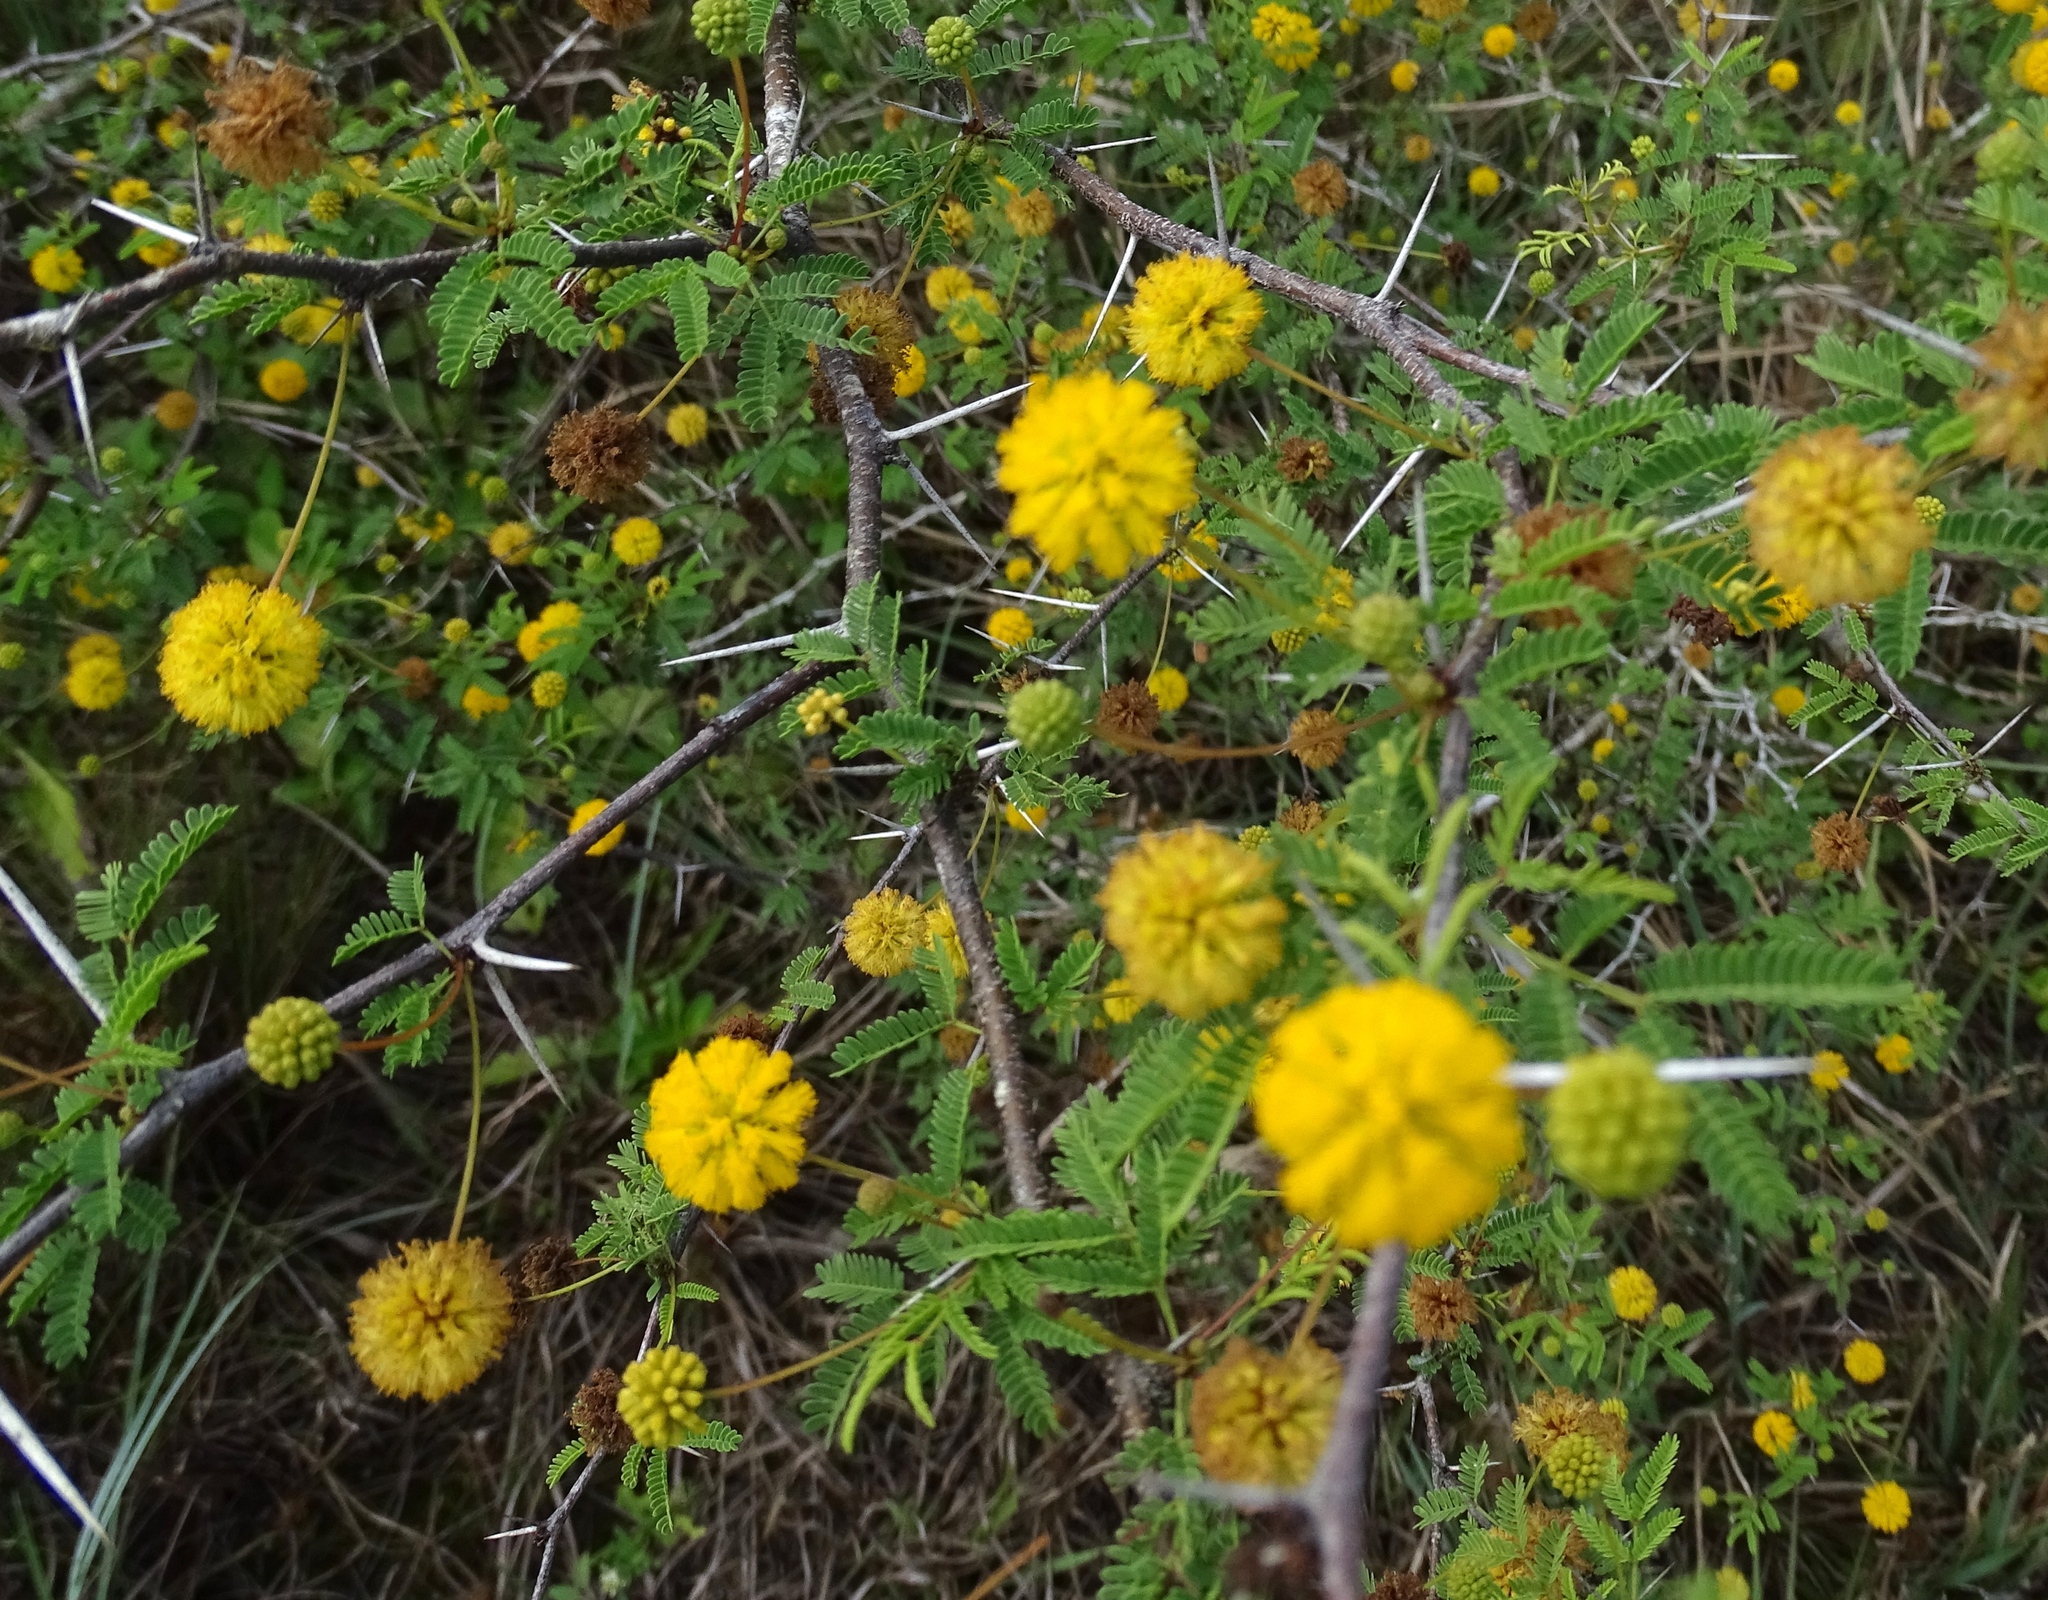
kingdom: Plantae
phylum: Tracheophyta
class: Magnoliopsida
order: Fabales
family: Fabaceae
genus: Vachellia
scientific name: Vachellia farnesiana
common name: Sweet acacia
